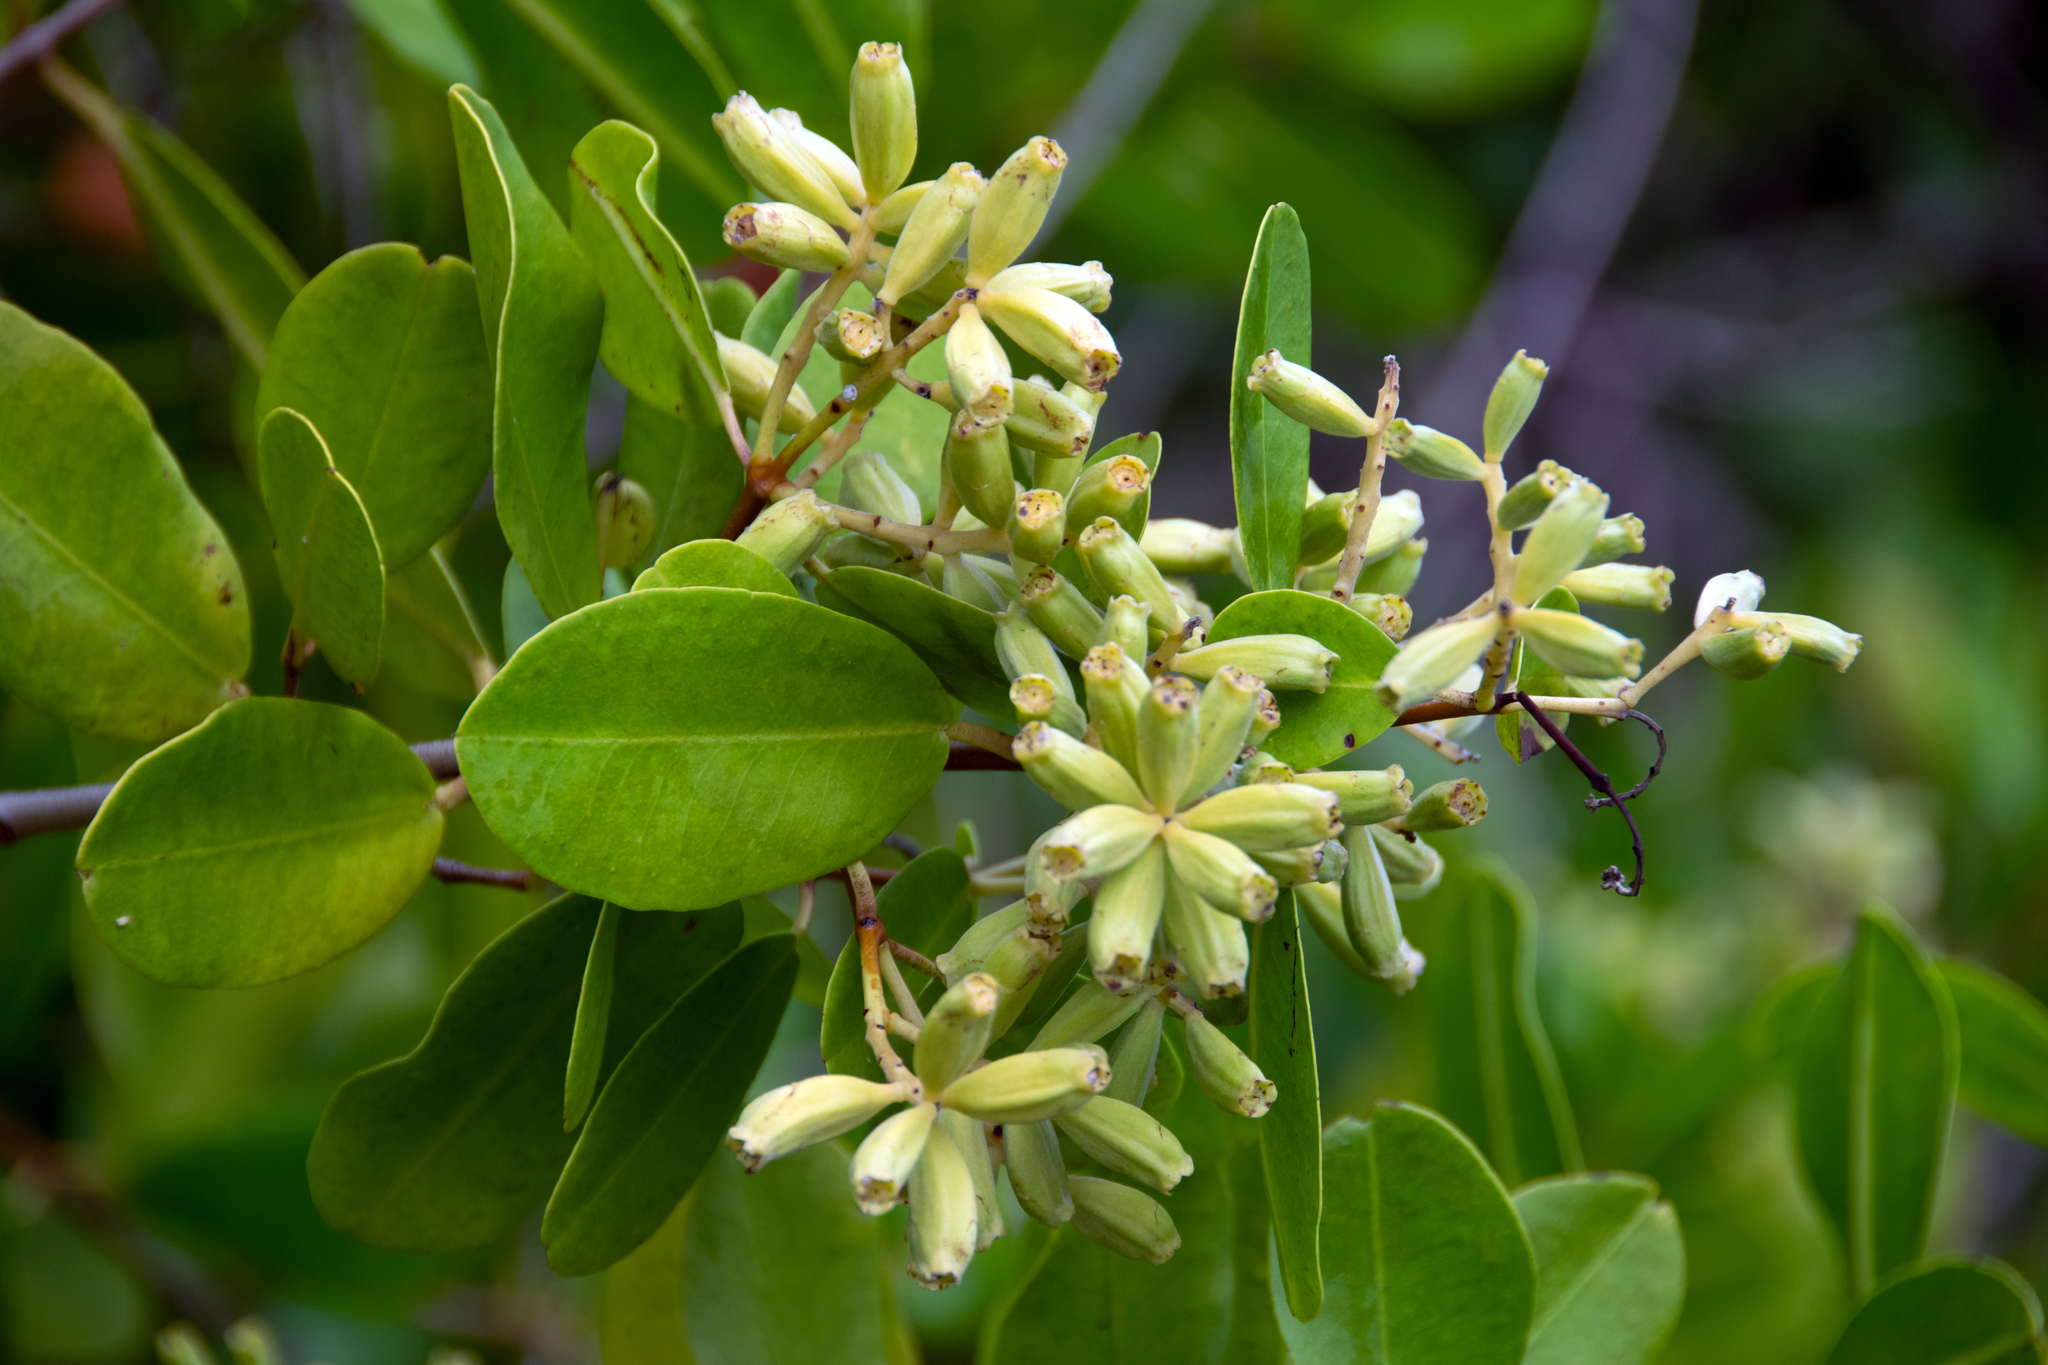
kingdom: Plantae
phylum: Tracheophyta
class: Magnoliopsida
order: Myrtales
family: Combretaceae
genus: Laguncularia
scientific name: Laguncularia racemosa
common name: White mangrove
